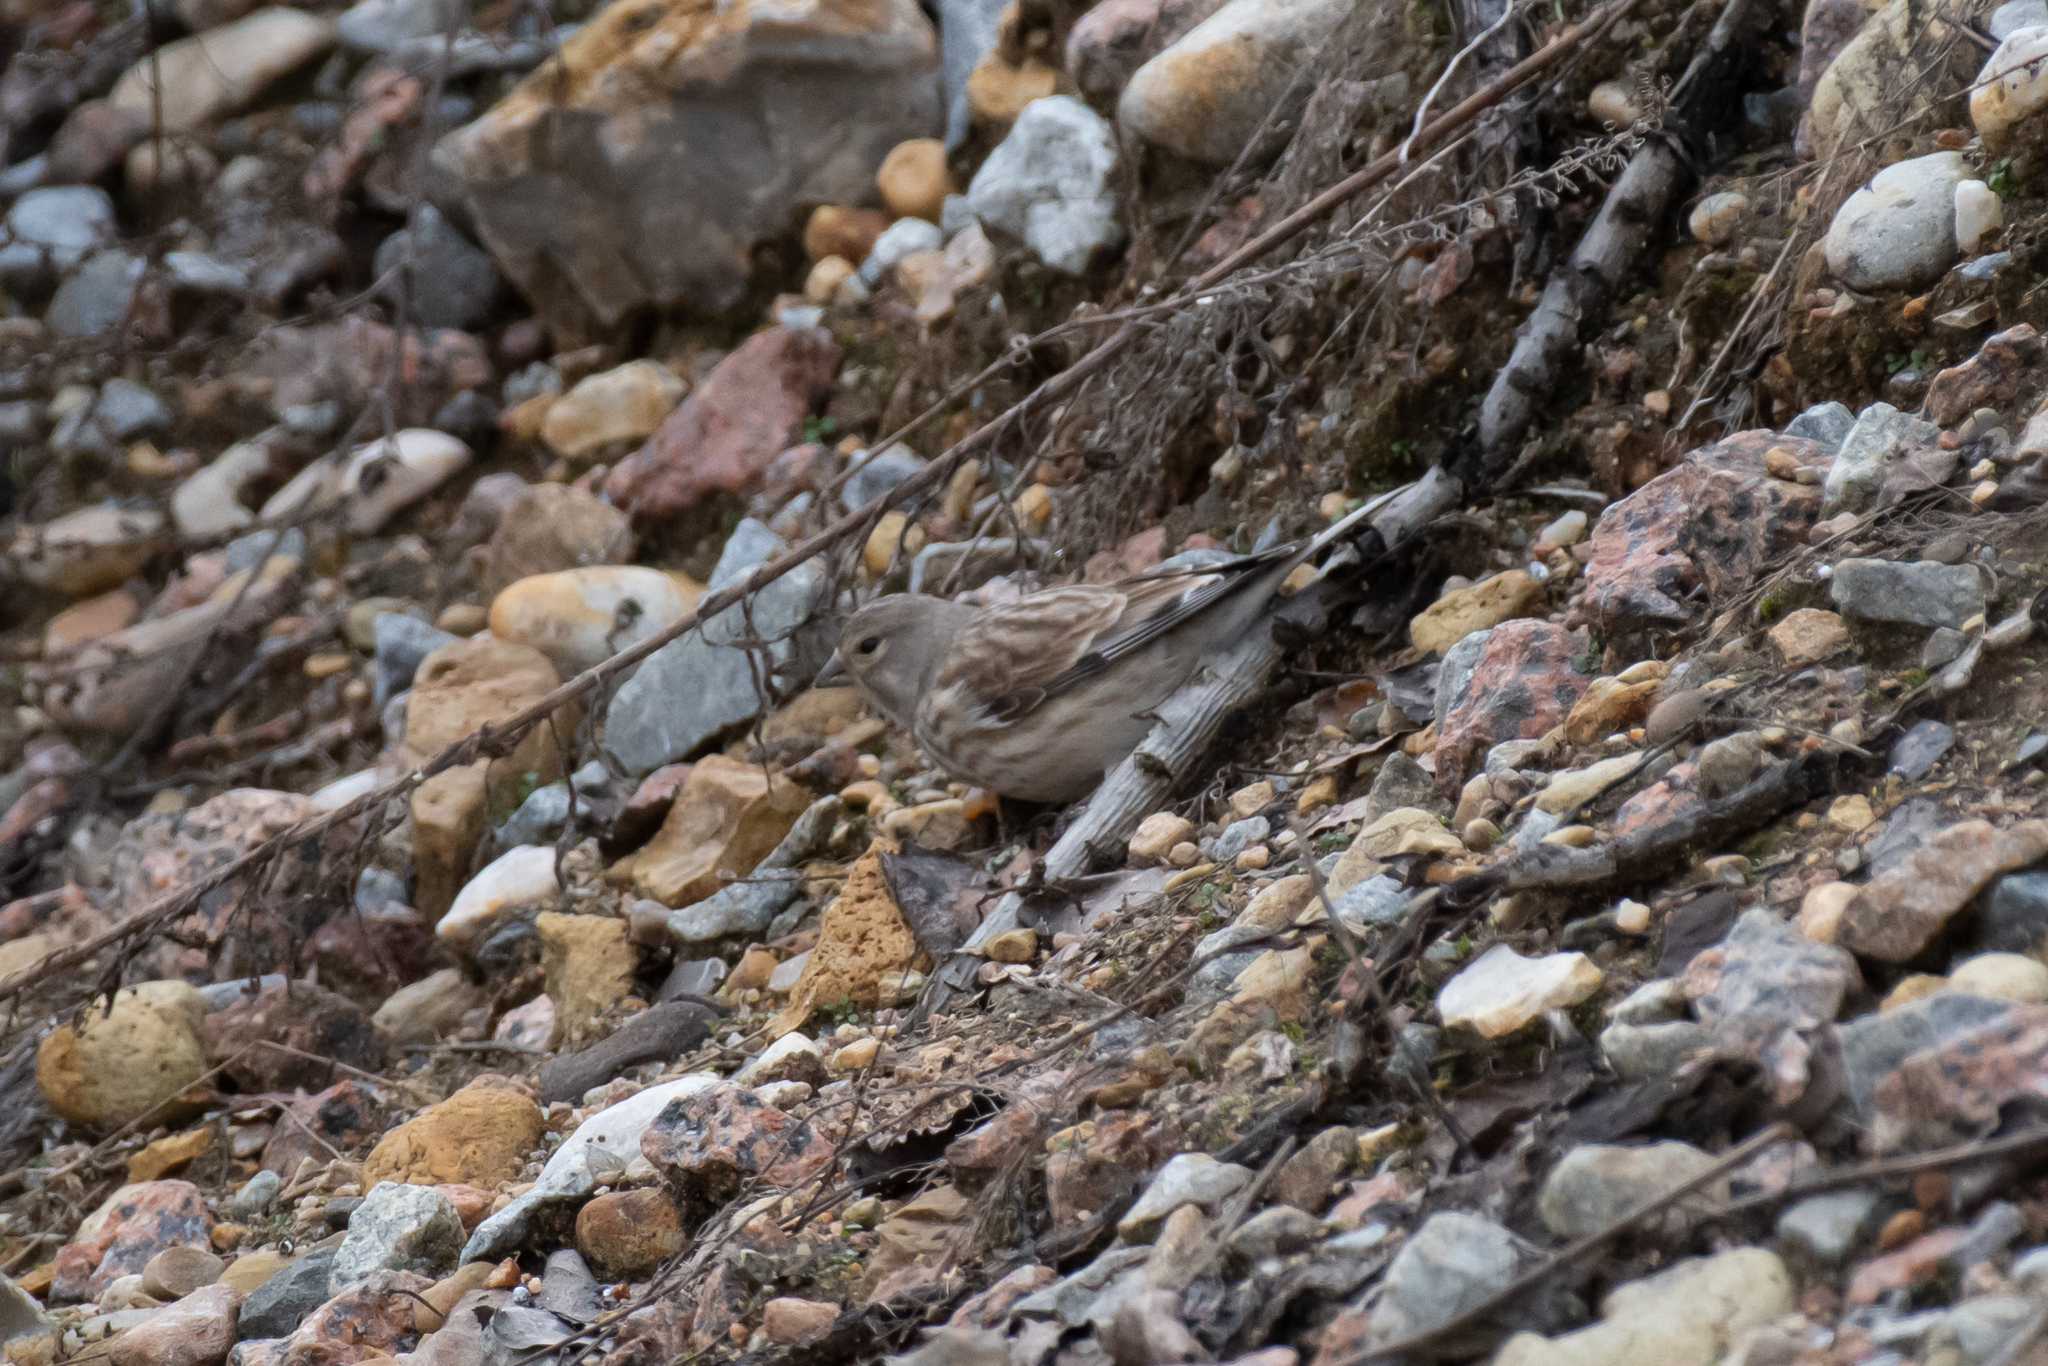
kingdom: Animalia
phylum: Chordata
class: Aves
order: Passeriformes
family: Fringillidae
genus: Linaria
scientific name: Linaria cannabina
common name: Common linnet
